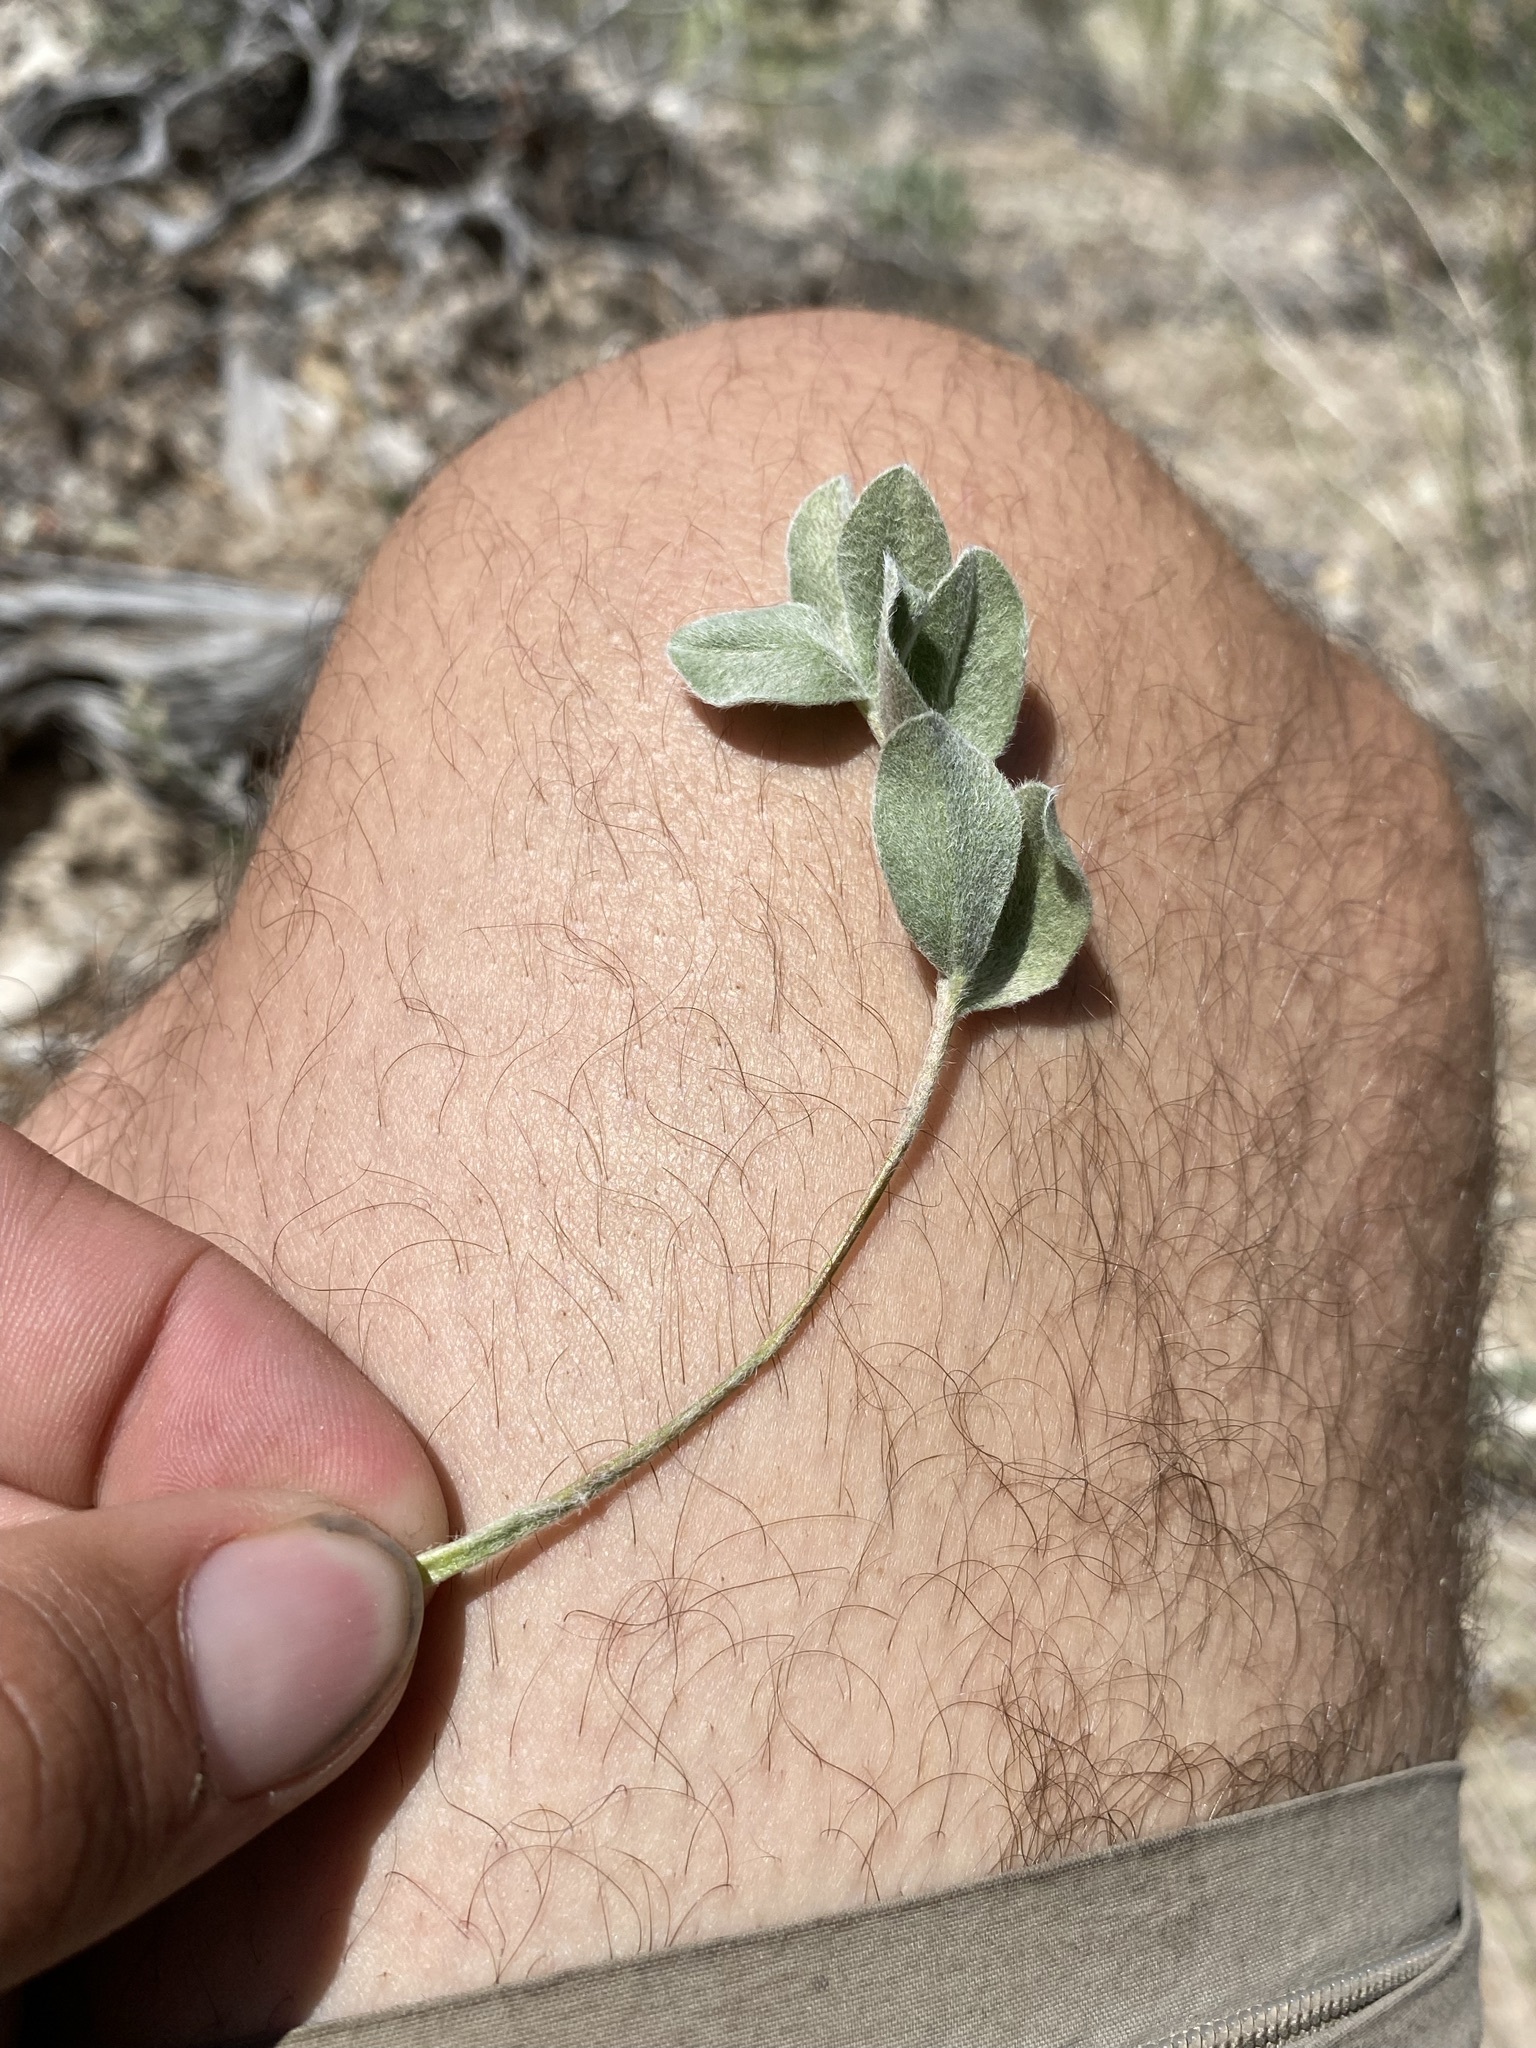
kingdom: Plantae
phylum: Tracheophyta
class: Magnoliopsida
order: Fabales
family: Fabaceae
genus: Astragalus
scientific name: Astragalus newberryi
